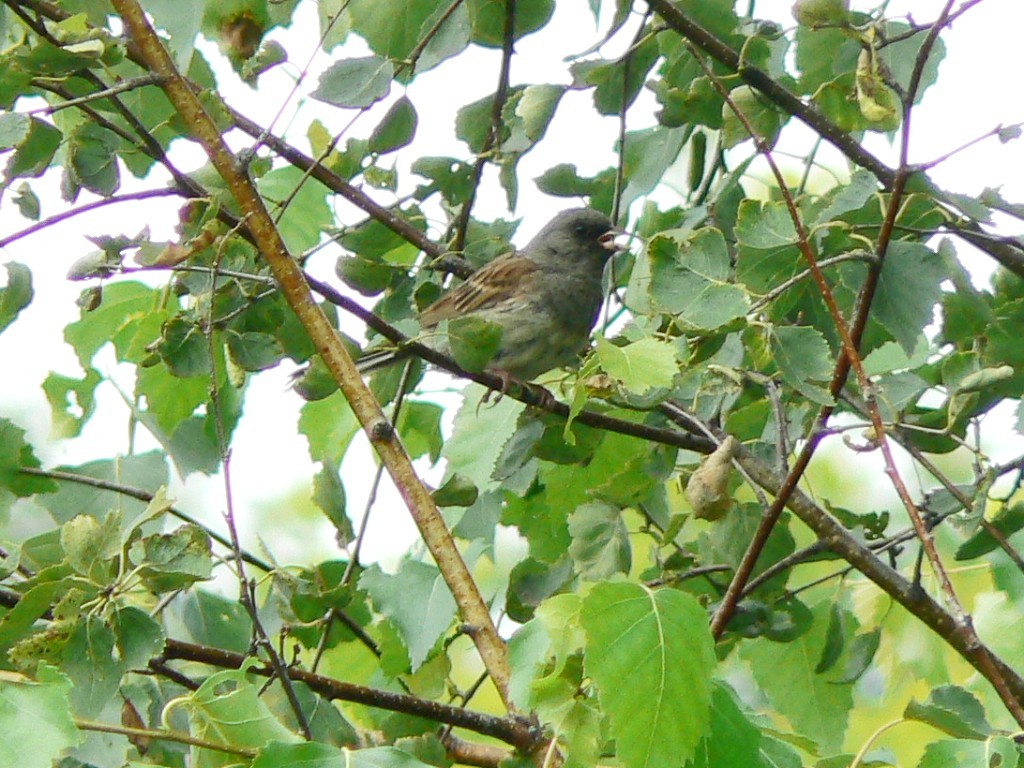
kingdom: Animalia
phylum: Chordata
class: Aves
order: Passeriformes
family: Emberizidae
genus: Emberiza
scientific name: Emberiza spodocephala
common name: Black-faced bunting
